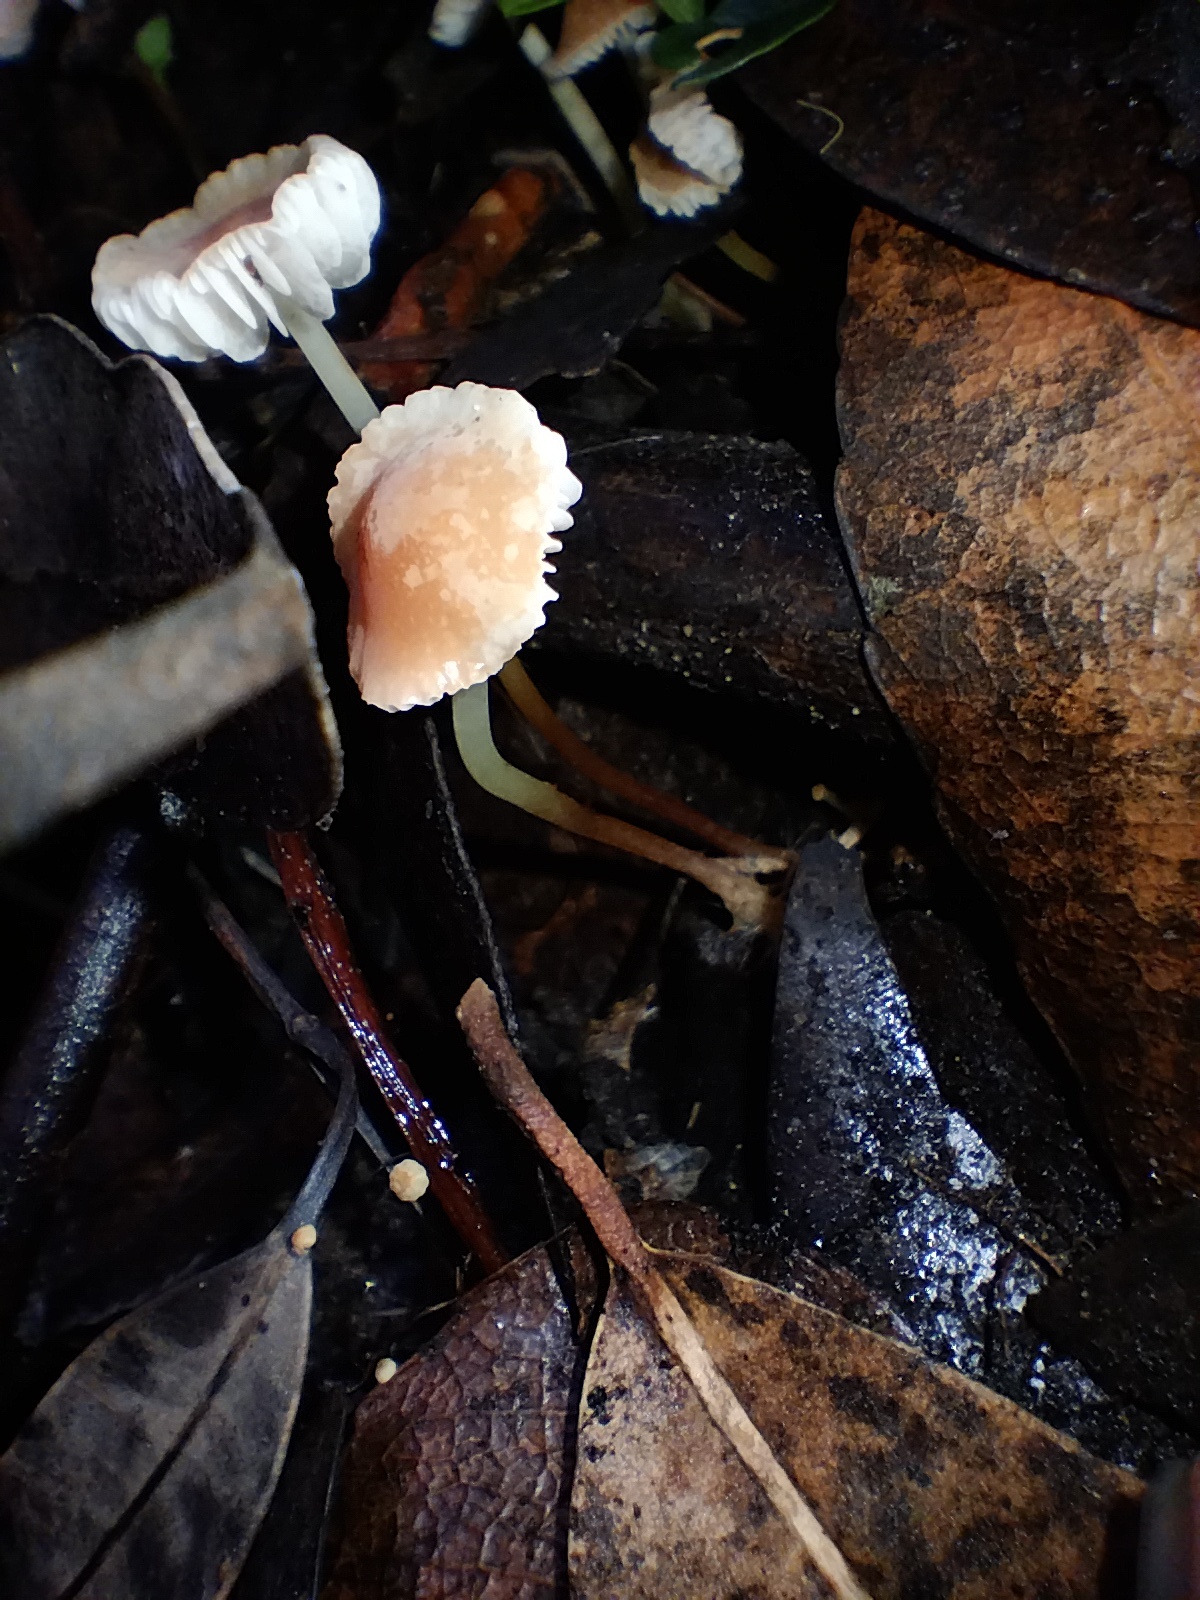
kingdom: Fungi
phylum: Basidiomycota
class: Agaricomycetes
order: Agaricales
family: Marasmiaceae
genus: Marasmius
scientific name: Marasmius elegans
